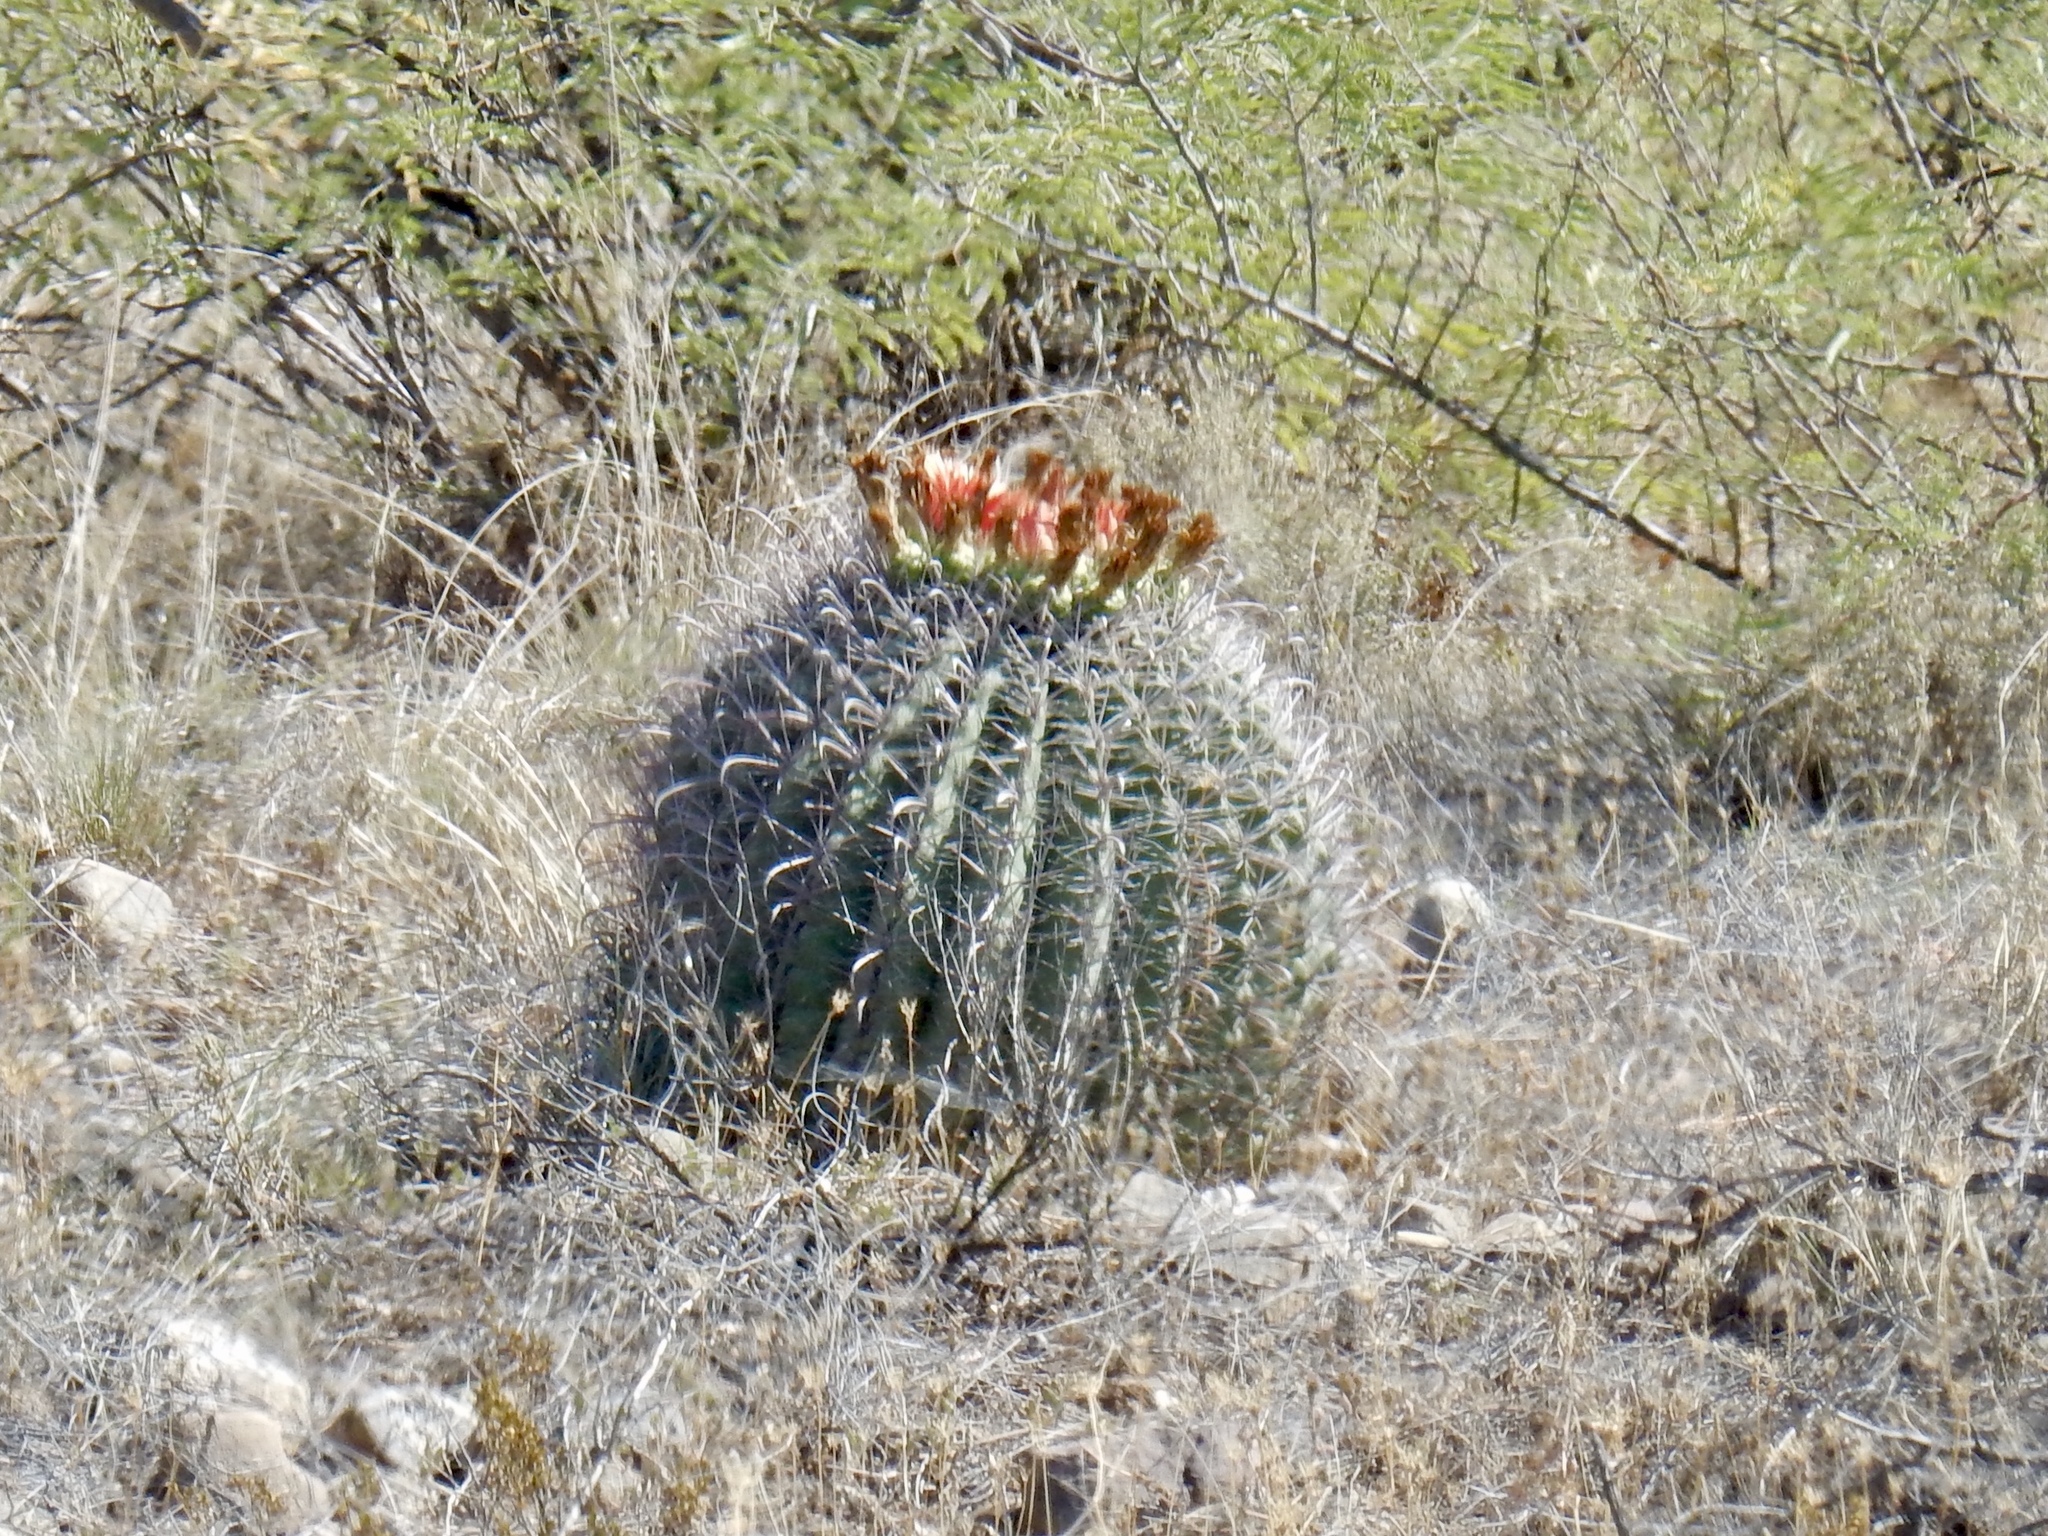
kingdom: Plantae
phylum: Tracheophyta
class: Magnoliopsida
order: Caryophyllales
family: Cactaceae
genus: Ferocactus
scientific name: Ferocactus wislizeni
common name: Candy barrel cactus
